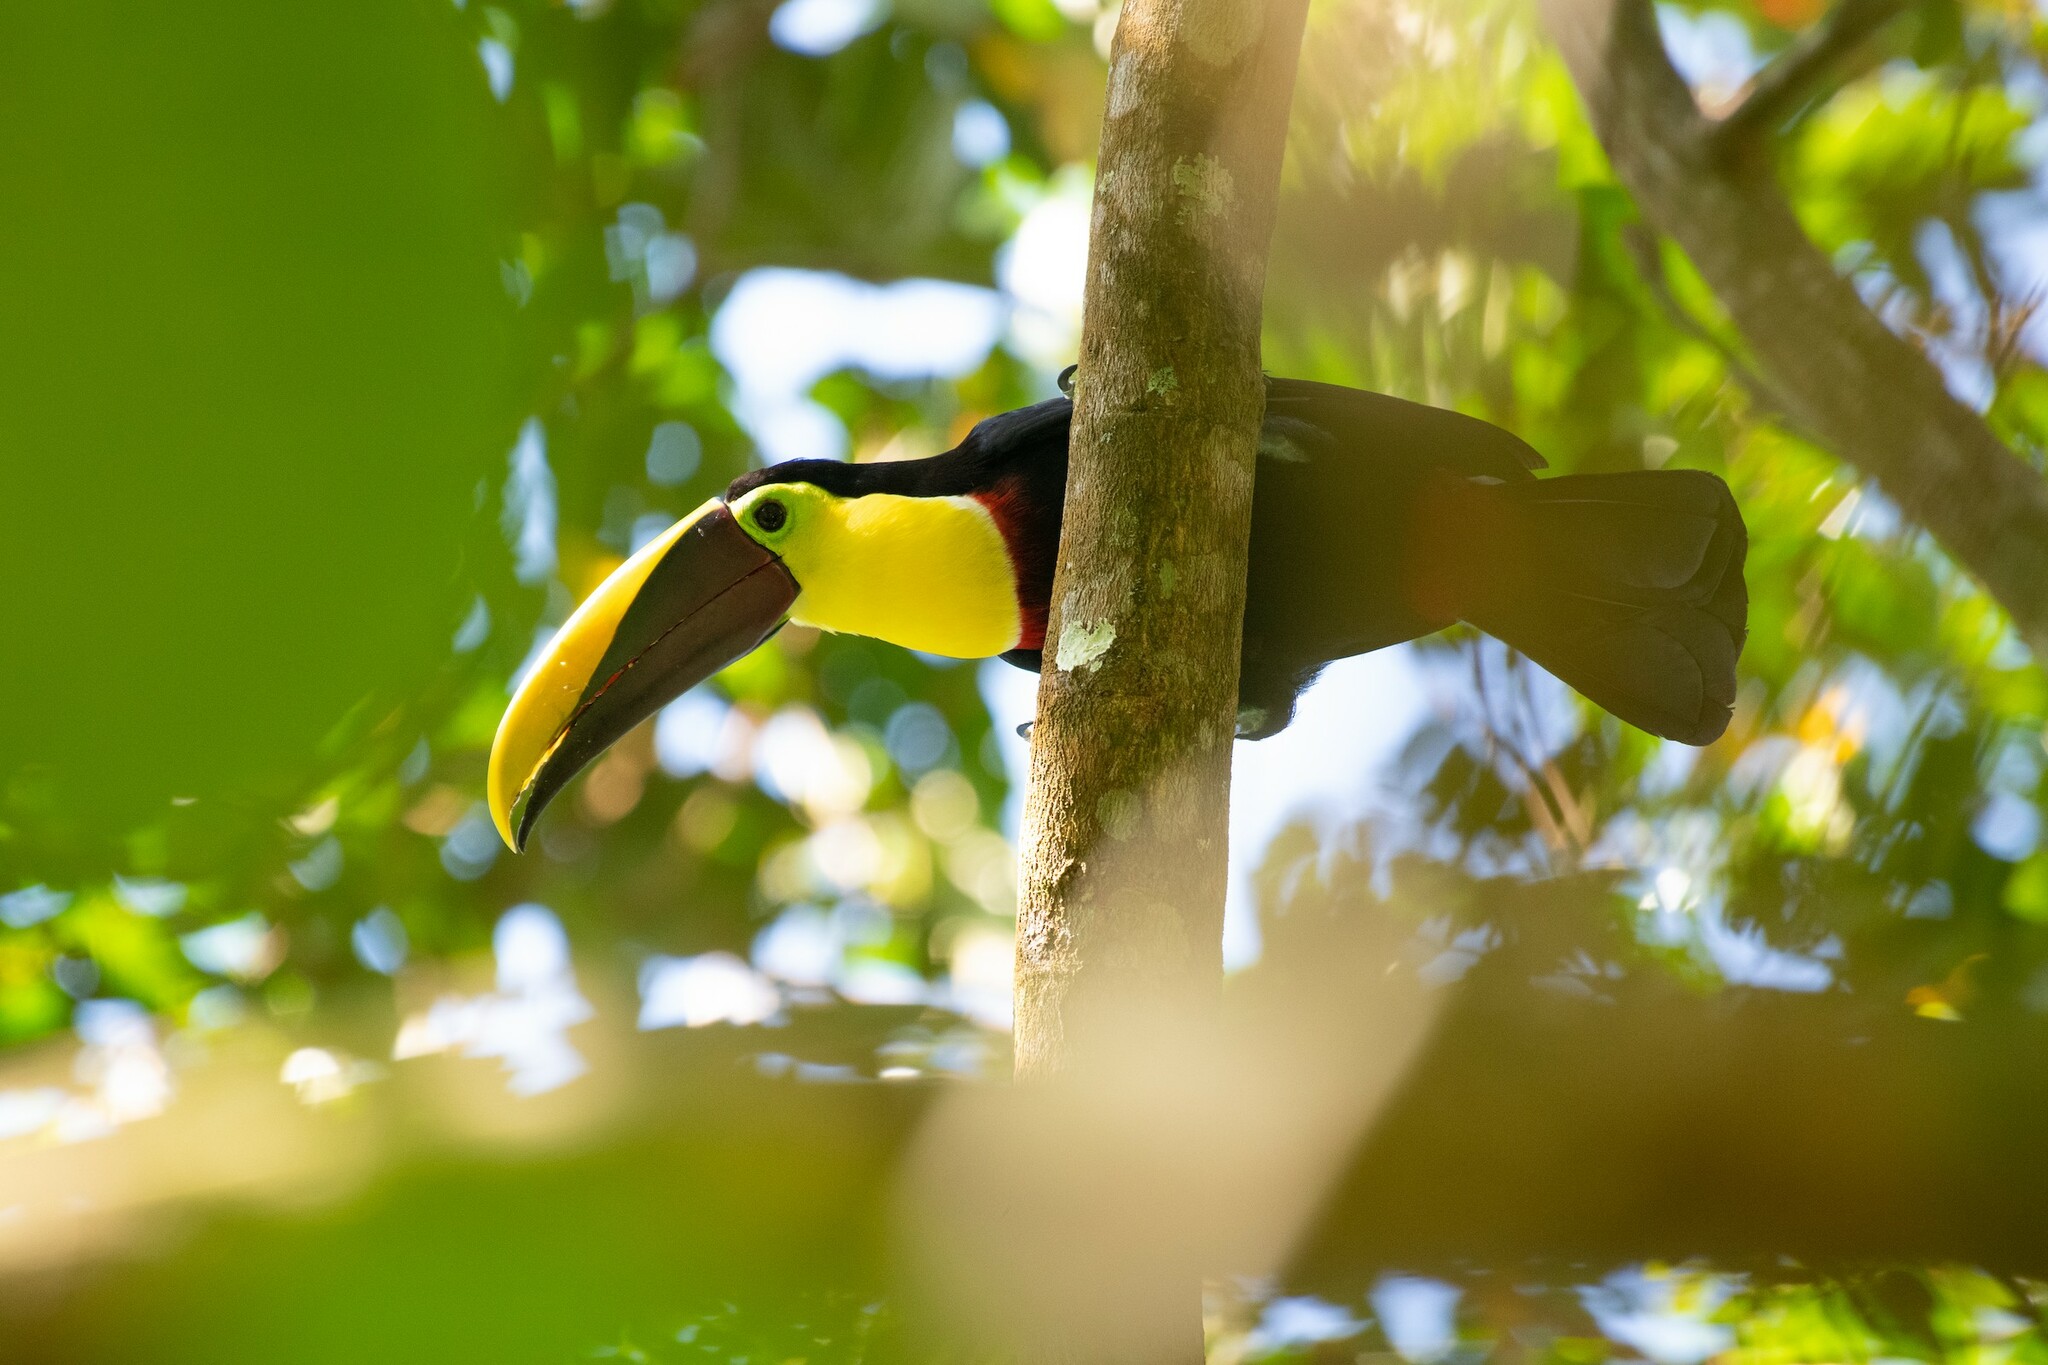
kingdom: Animalia
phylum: Chordata
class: Aves
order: Piciformes
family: Ramphastidae
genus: Ramphastos
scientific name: Ramphastos ambiguus
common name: Yellow-throated toucan
